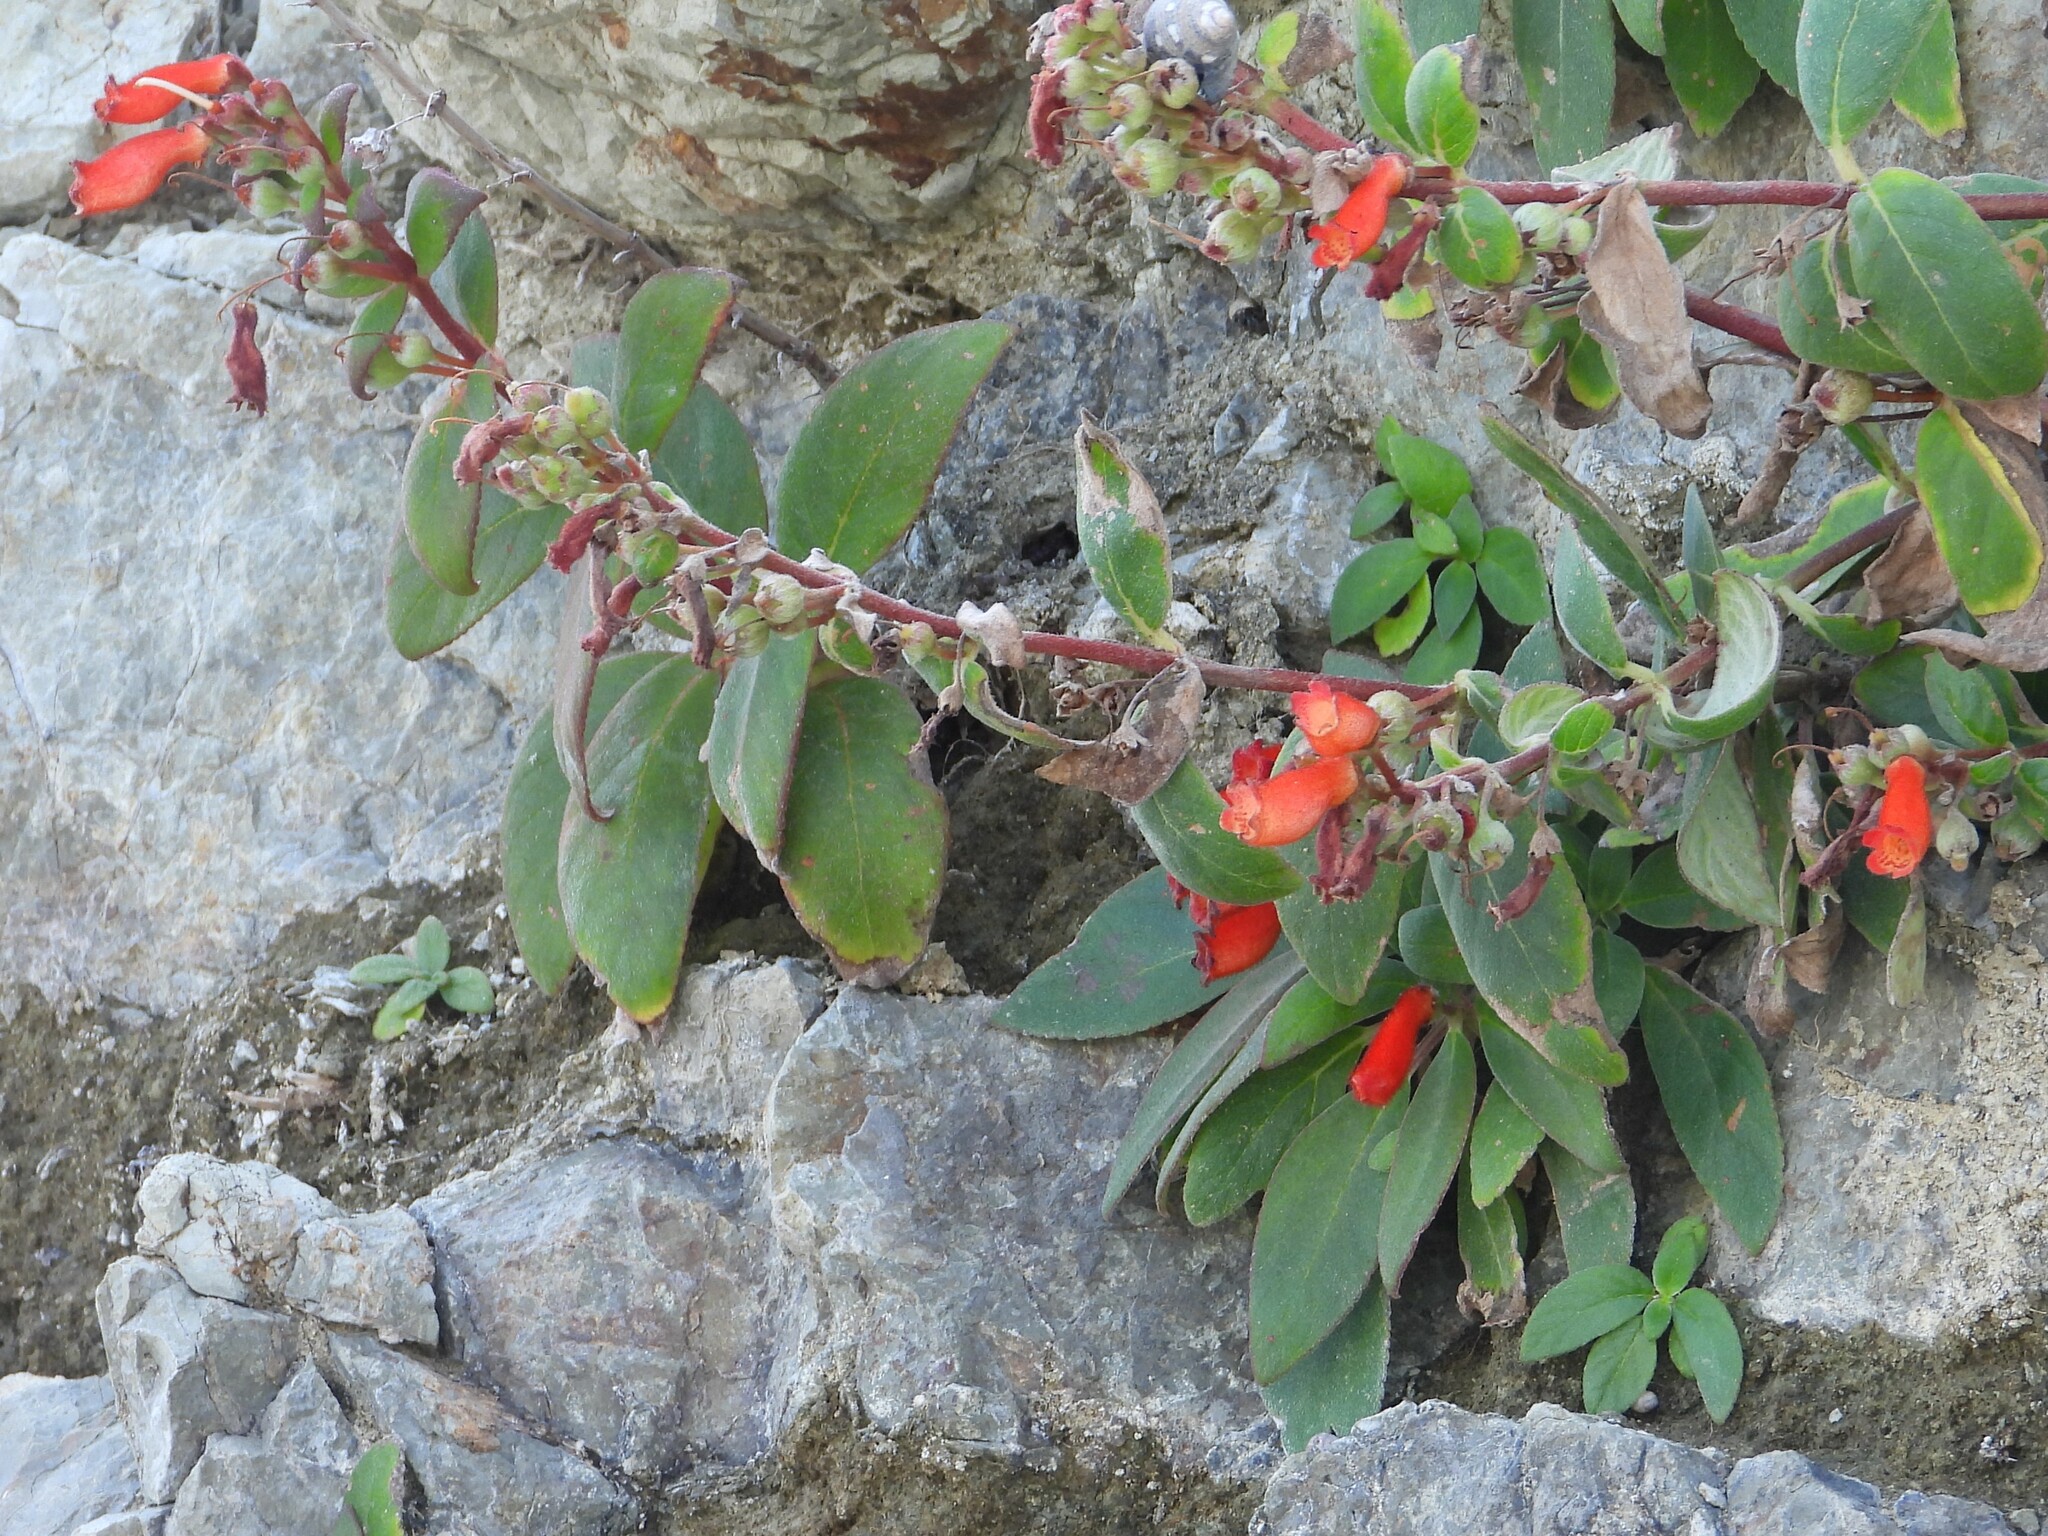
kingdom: Plantae
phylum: Tracheophyta
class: Magnoliopsida
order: Lamiales
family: Gesneriaceae
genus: Kohleria
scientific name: Kohleria spicata
